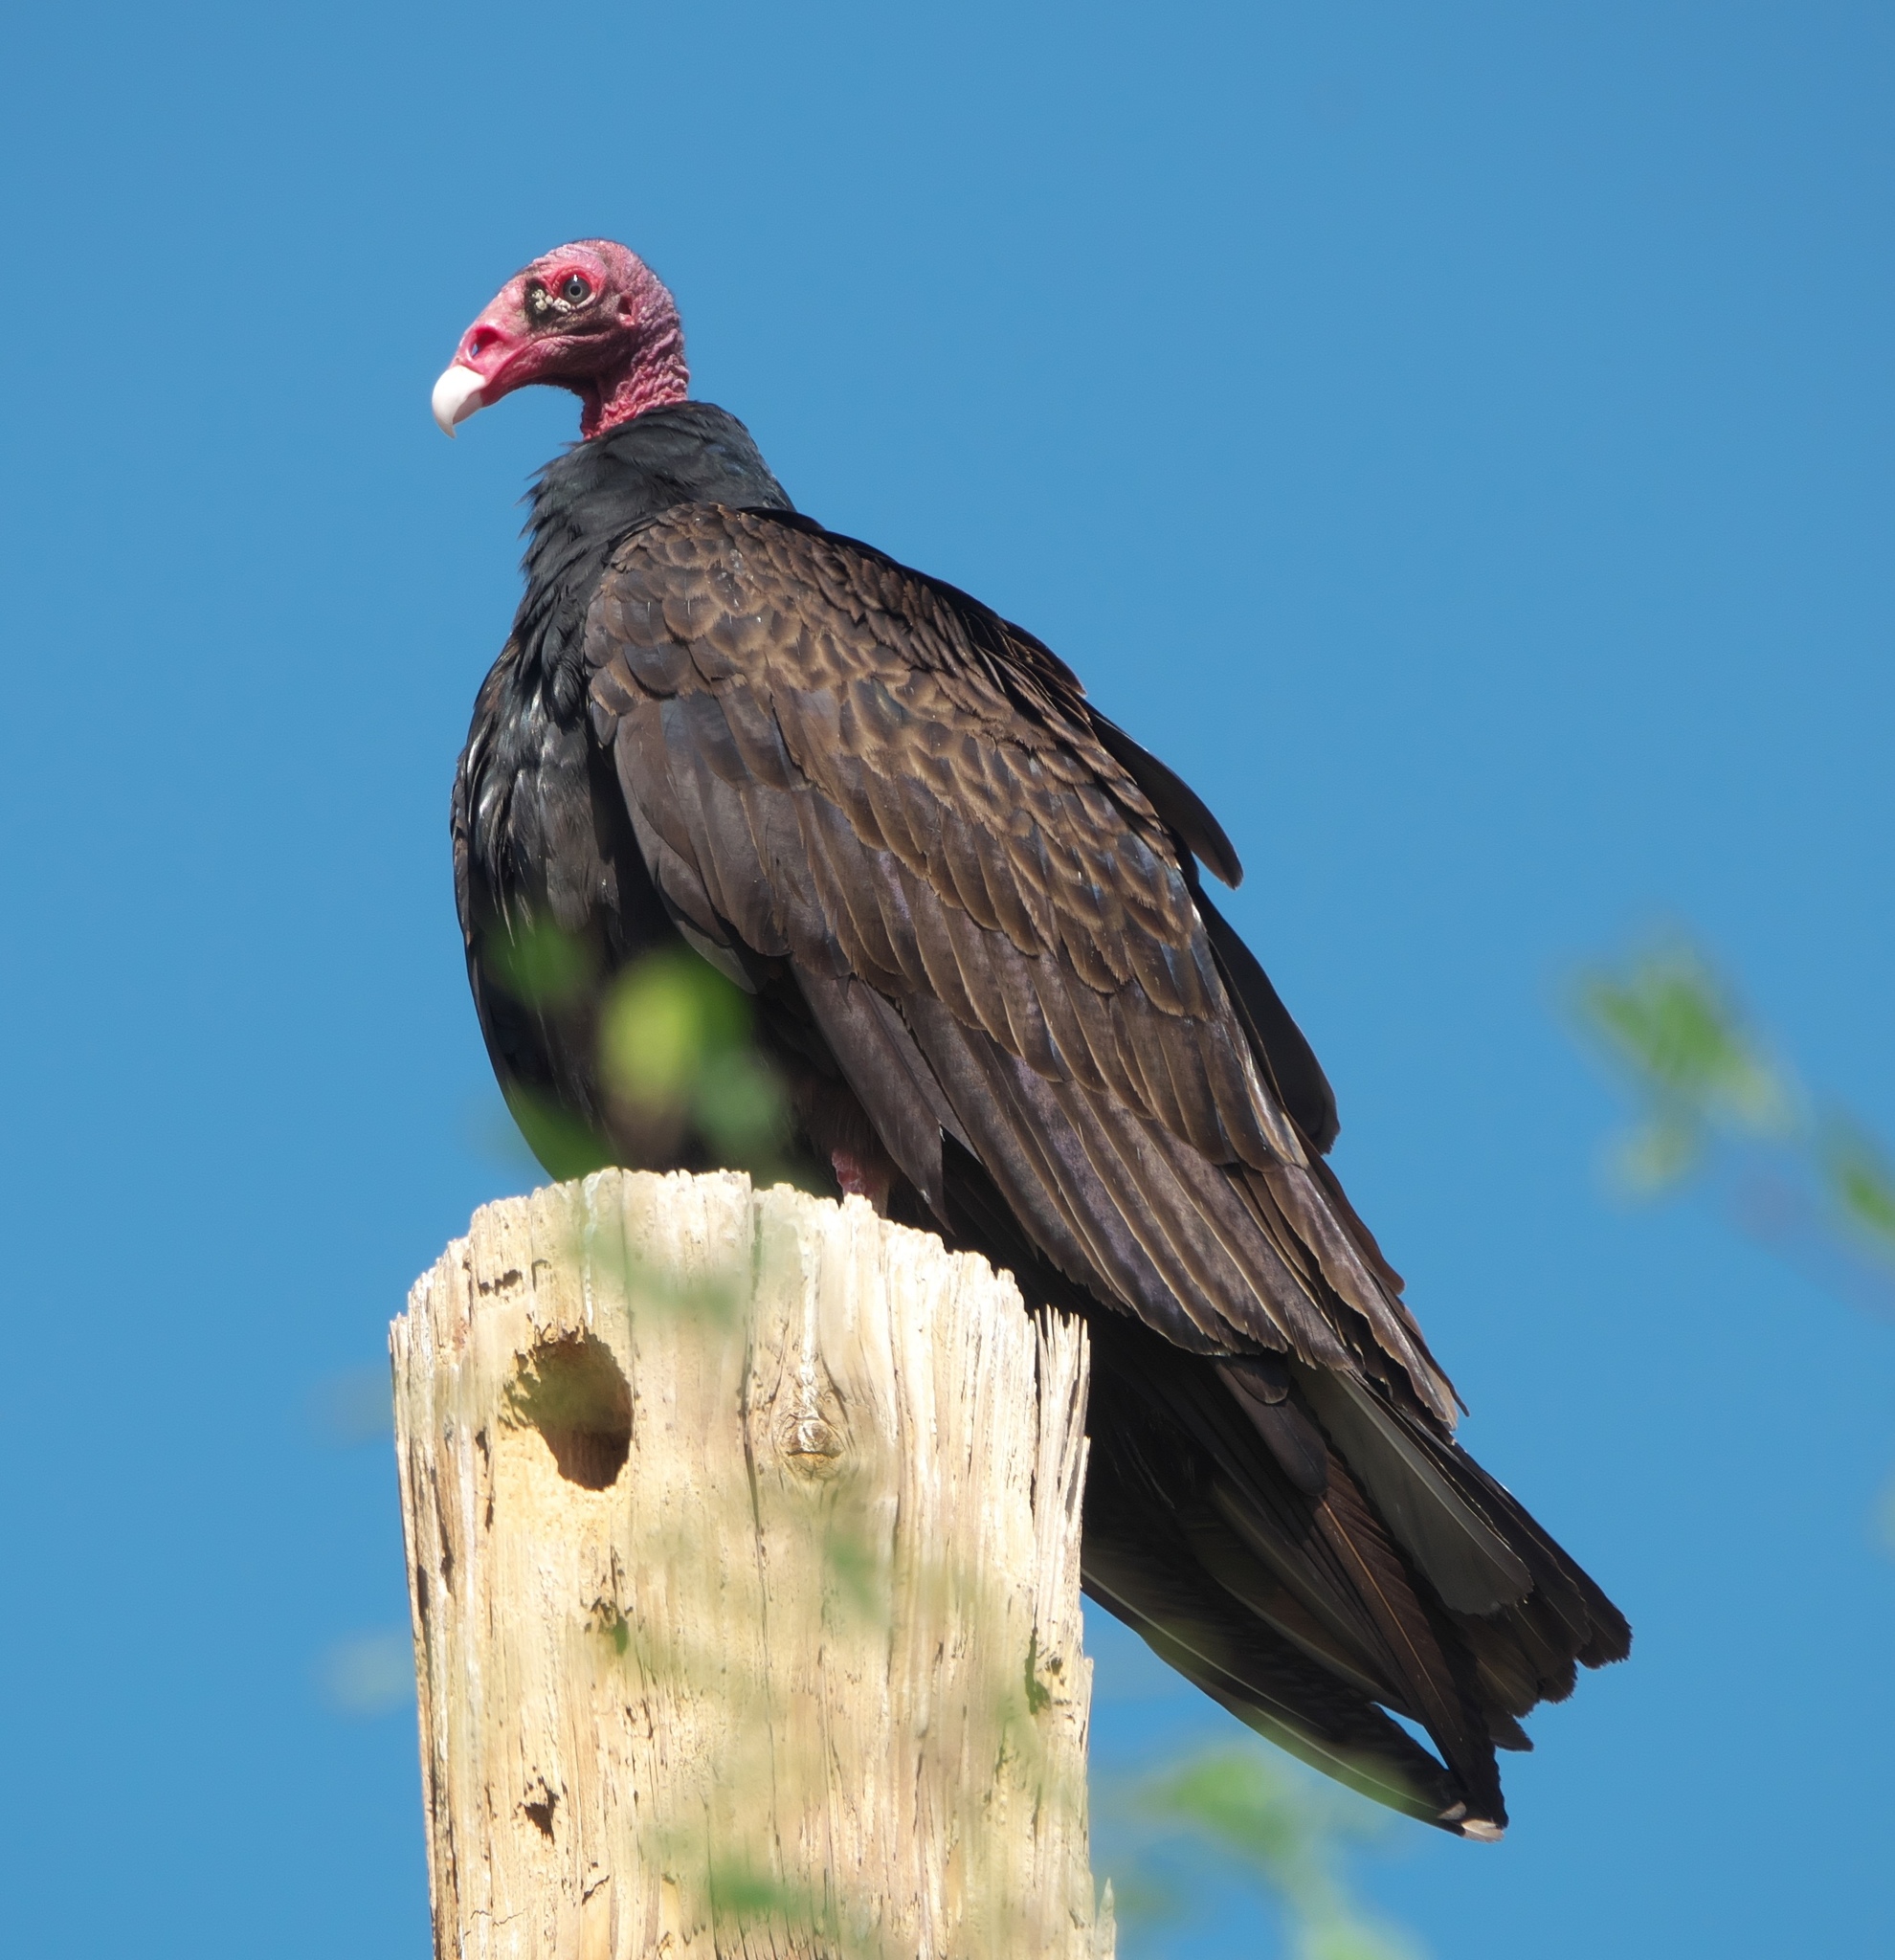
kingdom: Animalia
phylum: Chordata
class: Aves
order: Accipitriformes
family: Cathartidae
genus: Cathartes
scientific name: Cathartes aura
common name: Turkey vulture
